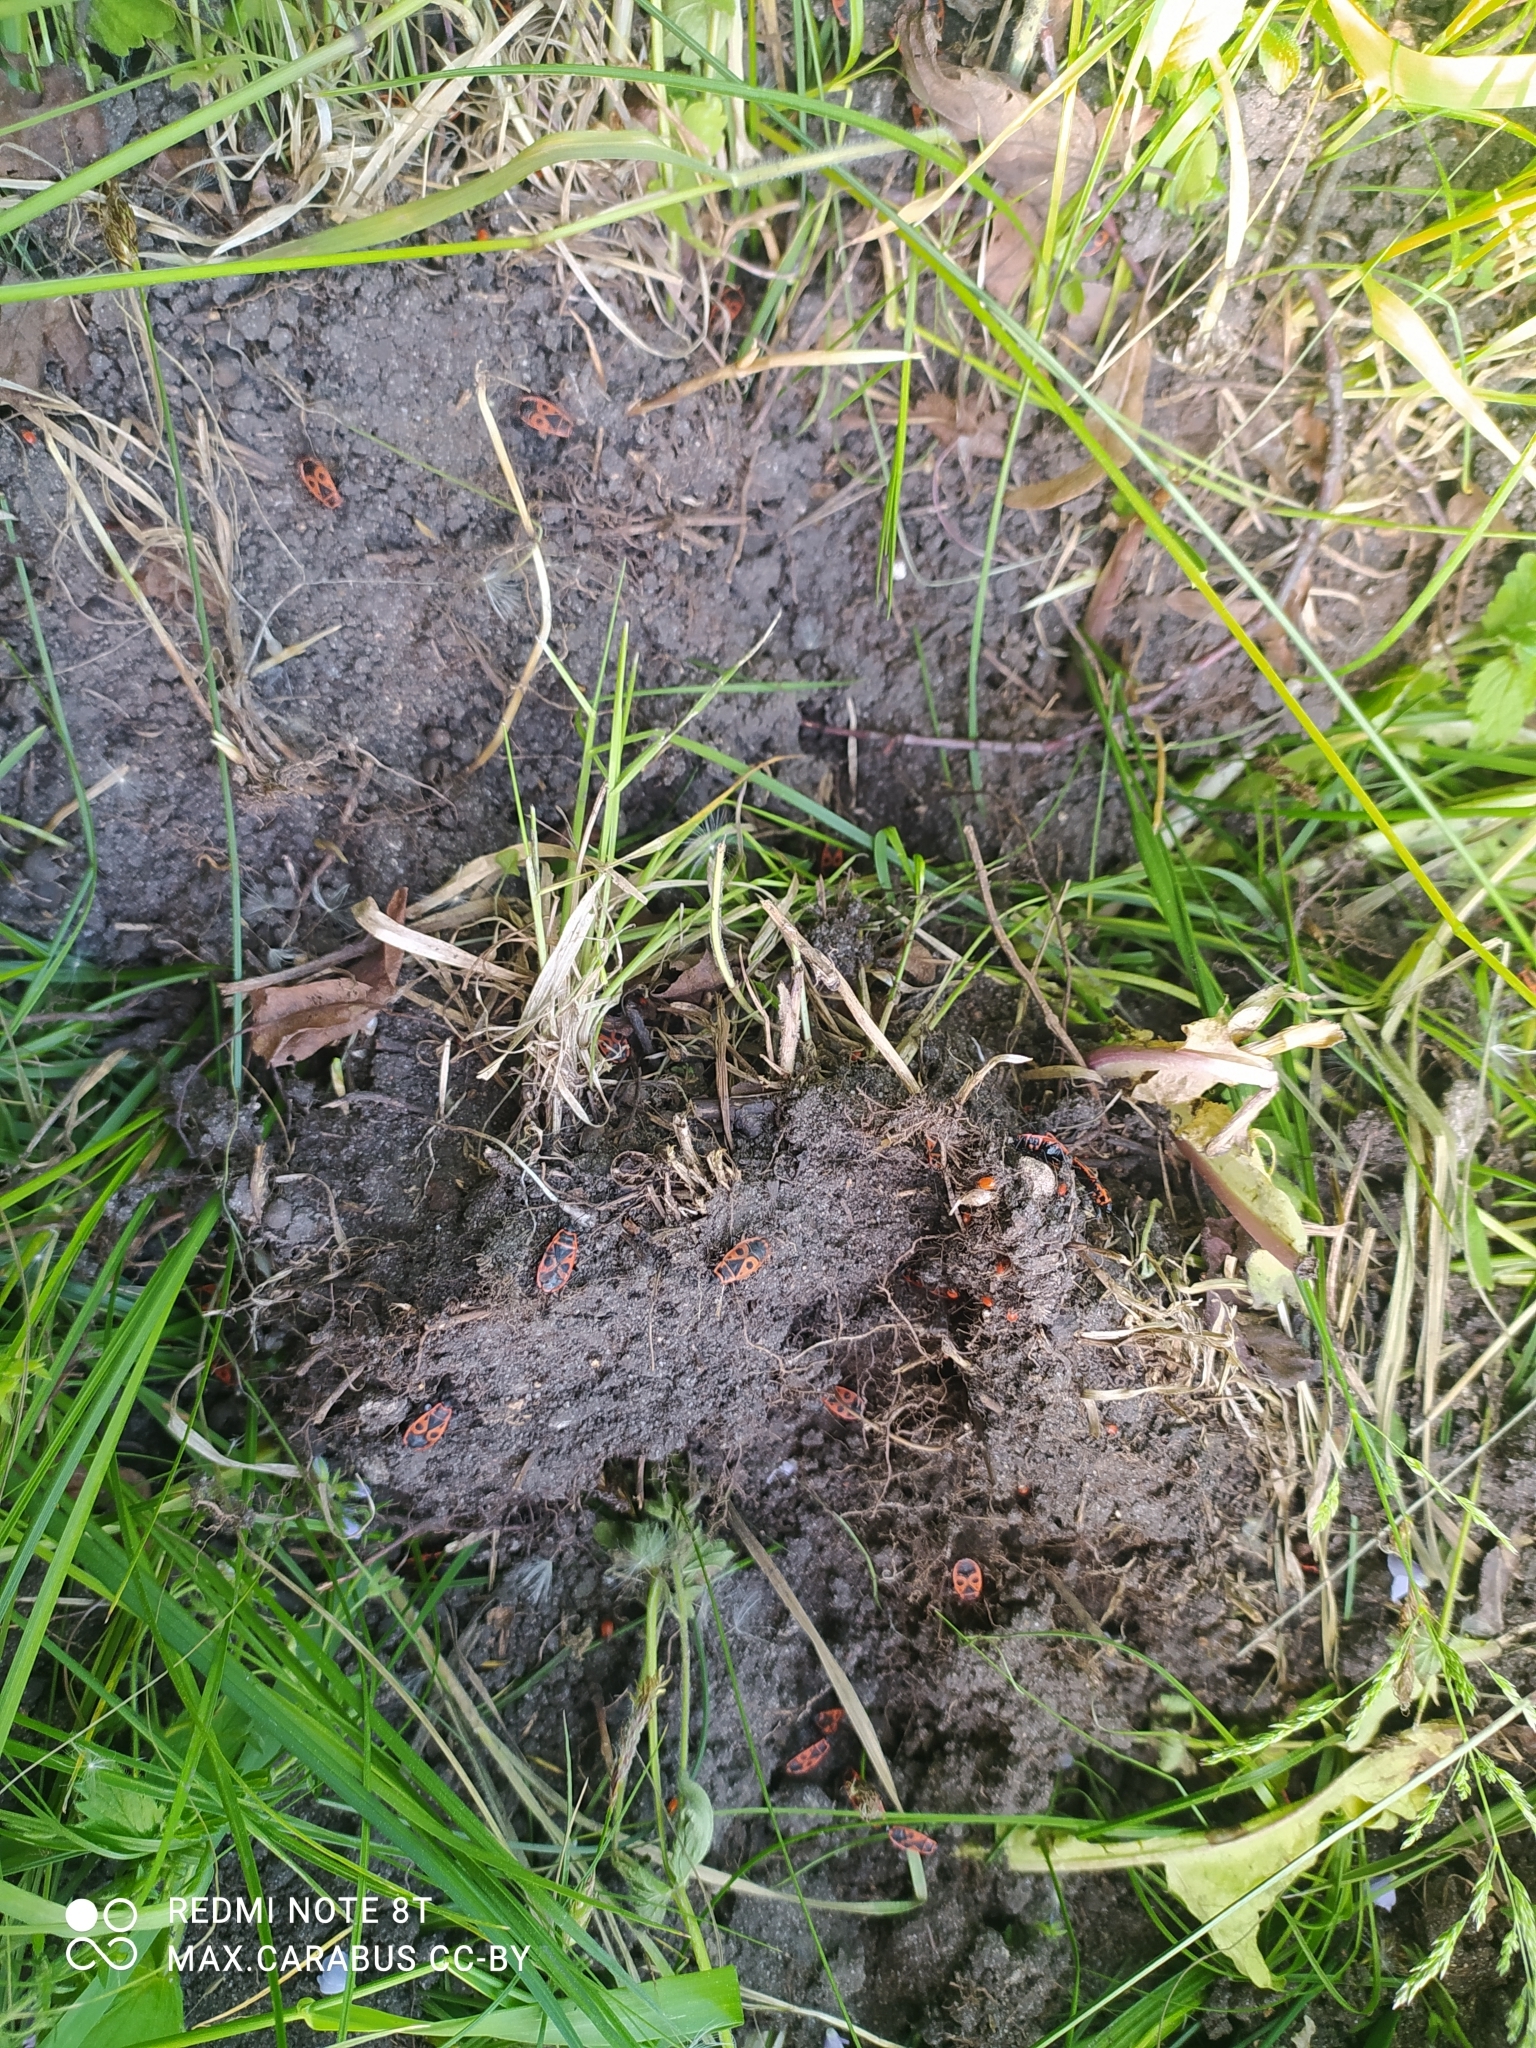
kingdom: Animalia
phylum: Arthropoda
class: Insecta
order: Hemiptera
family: Pyrrhocoridae
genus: Pyrrhocoris
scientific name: Pyrrhocoris apterus
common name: Firebug
